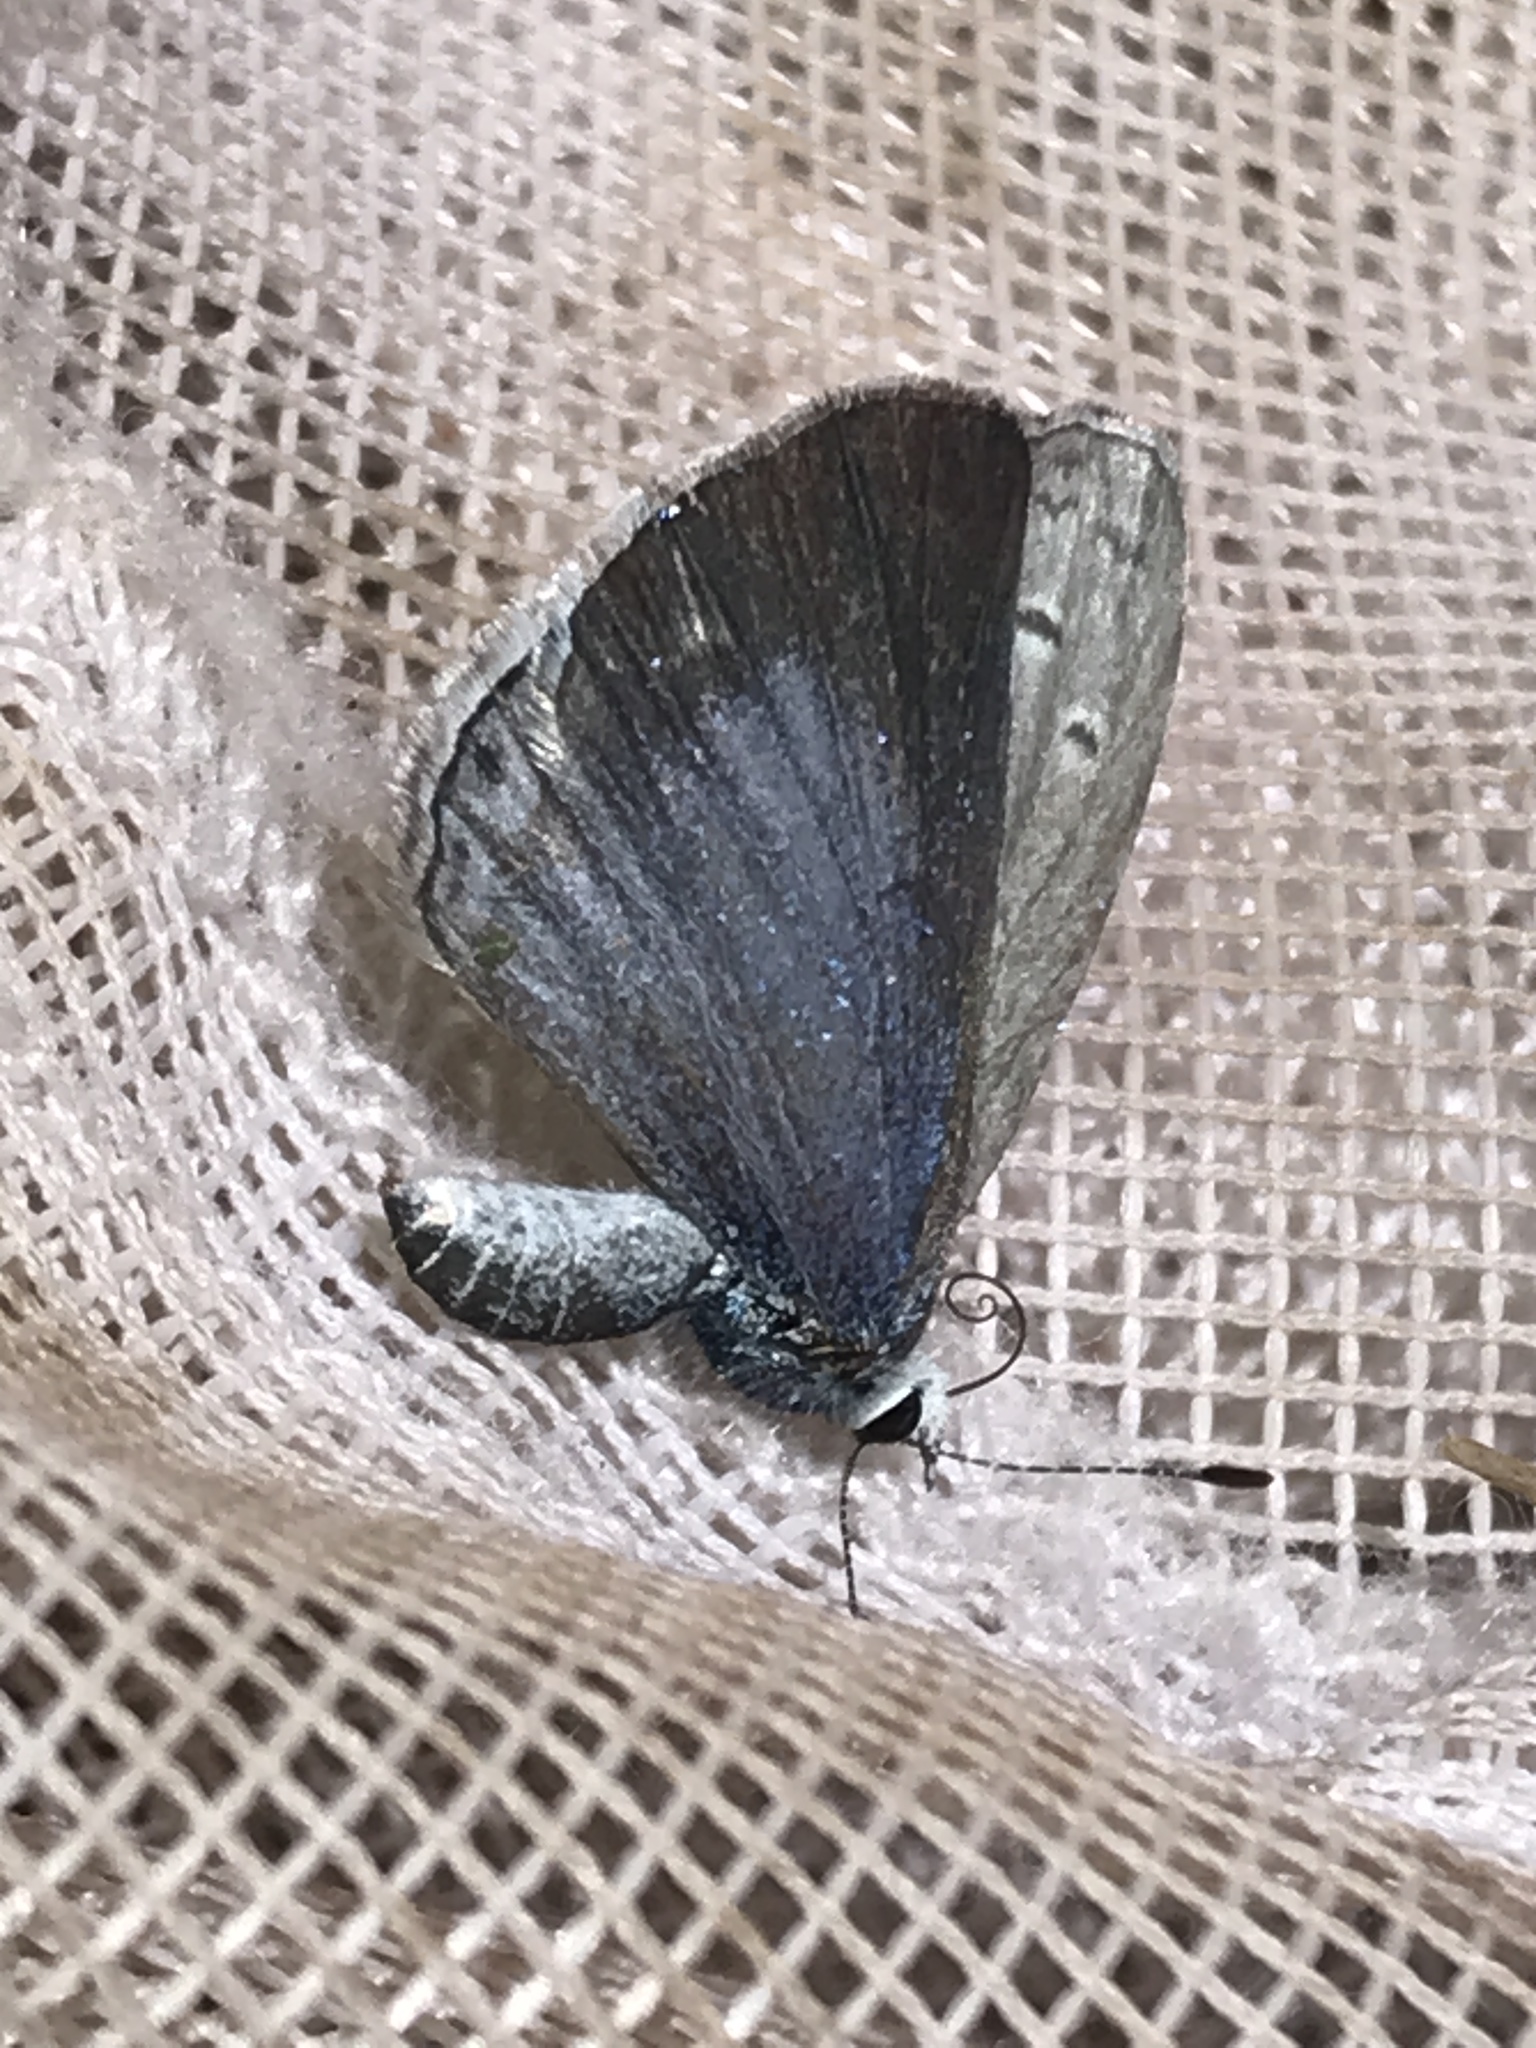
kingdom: Animalia
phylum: Arthropoda
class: Insecta
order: Lepidoptera
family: Lycaenidae
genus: Celastrina
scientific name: Celastrina ladon
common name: Spring azure
